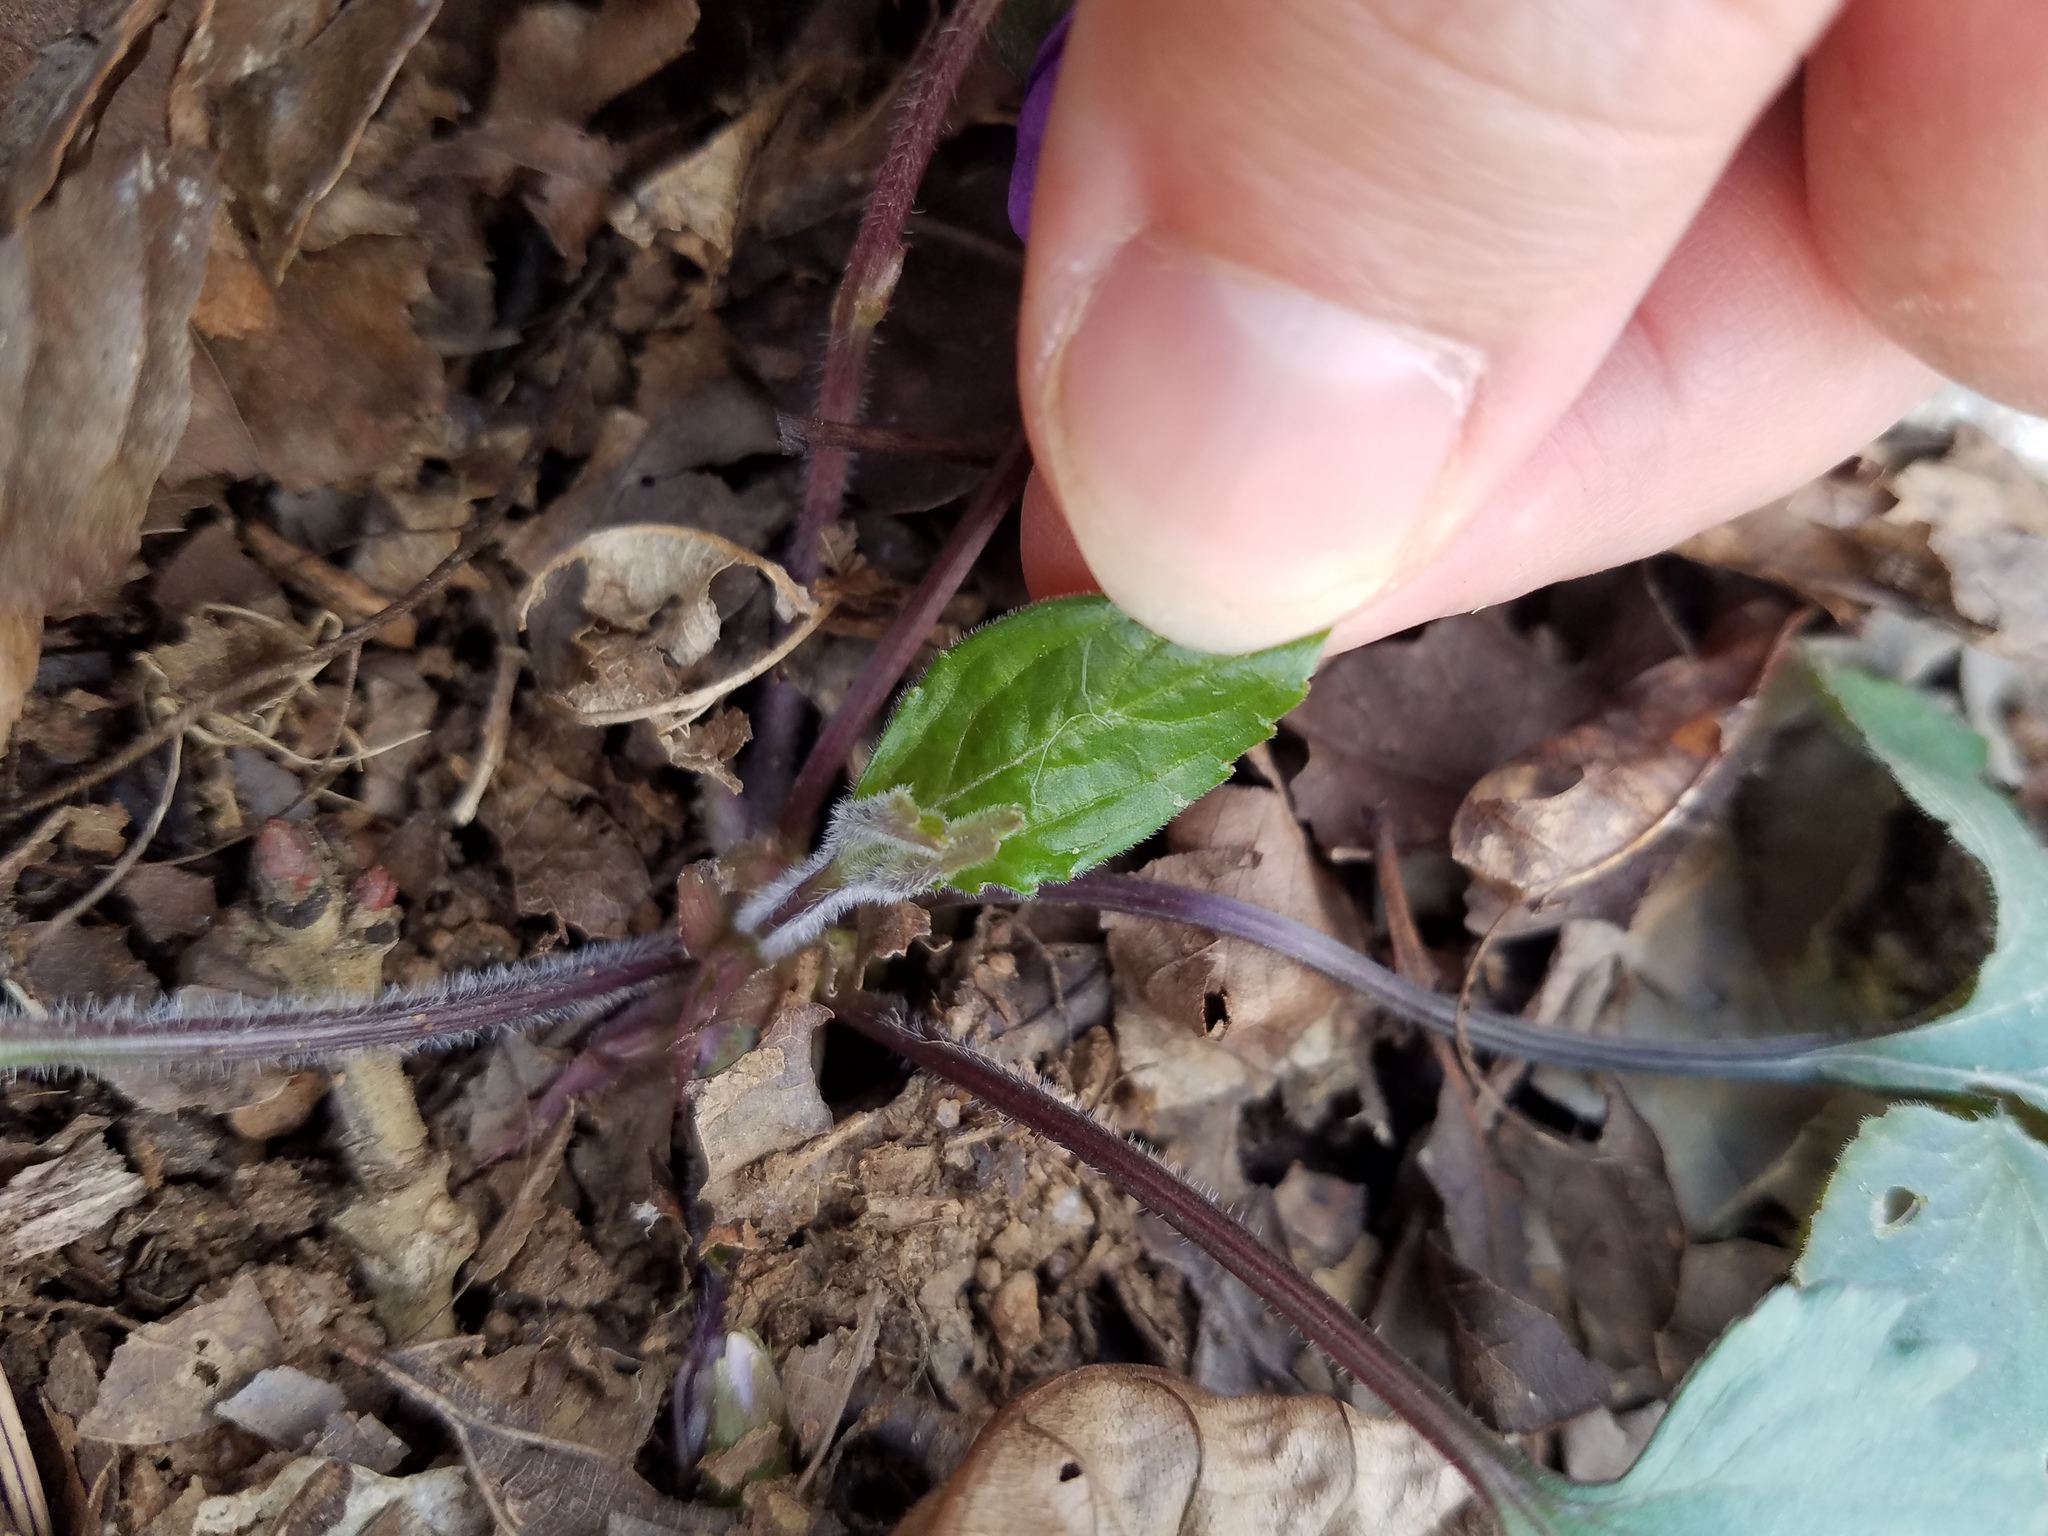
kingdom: Plantae
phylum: Tracheophyta
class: Magnoliopsida
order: Malpighiales
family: Violaceae
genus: Viola
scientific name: Viola palmata
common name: Early blue violet
